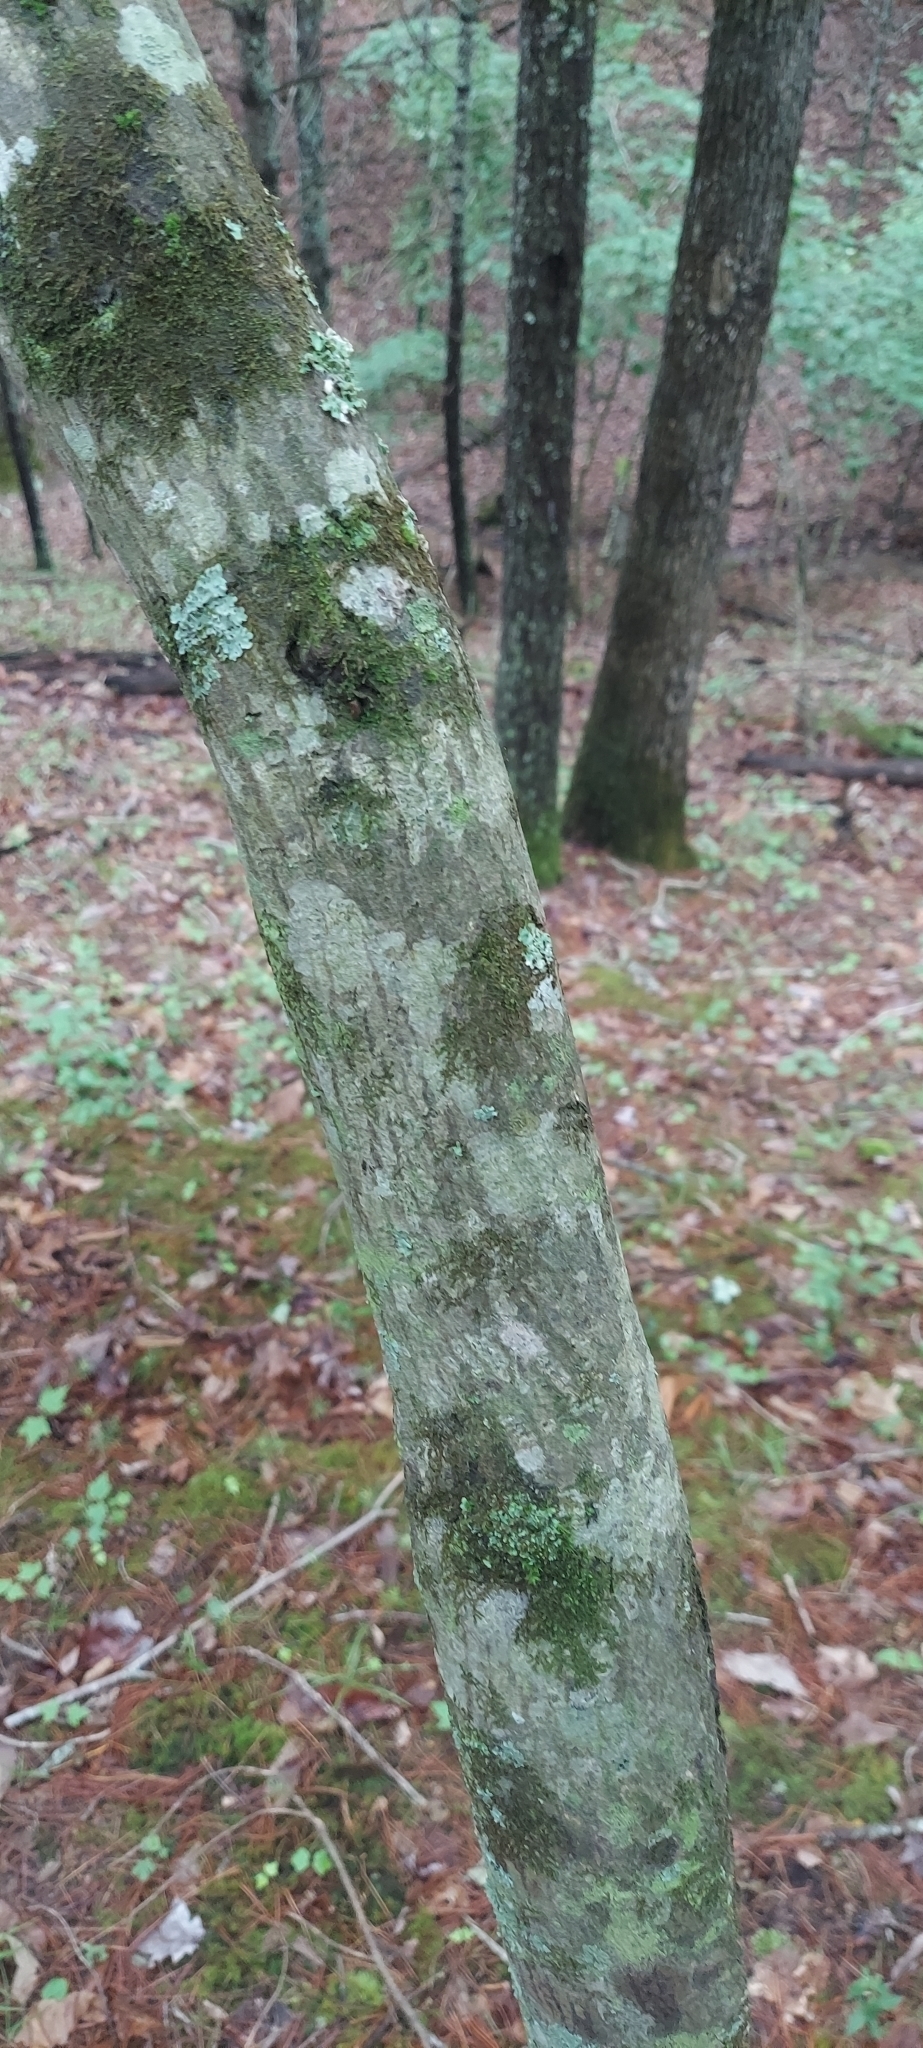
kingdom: Plantae
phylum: Tracheophyta
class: Magnoliopsida
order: Rosales
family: Rosaceae
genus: Amelanchier
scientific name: Amelanchier arborea
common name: Downy serviceberry
